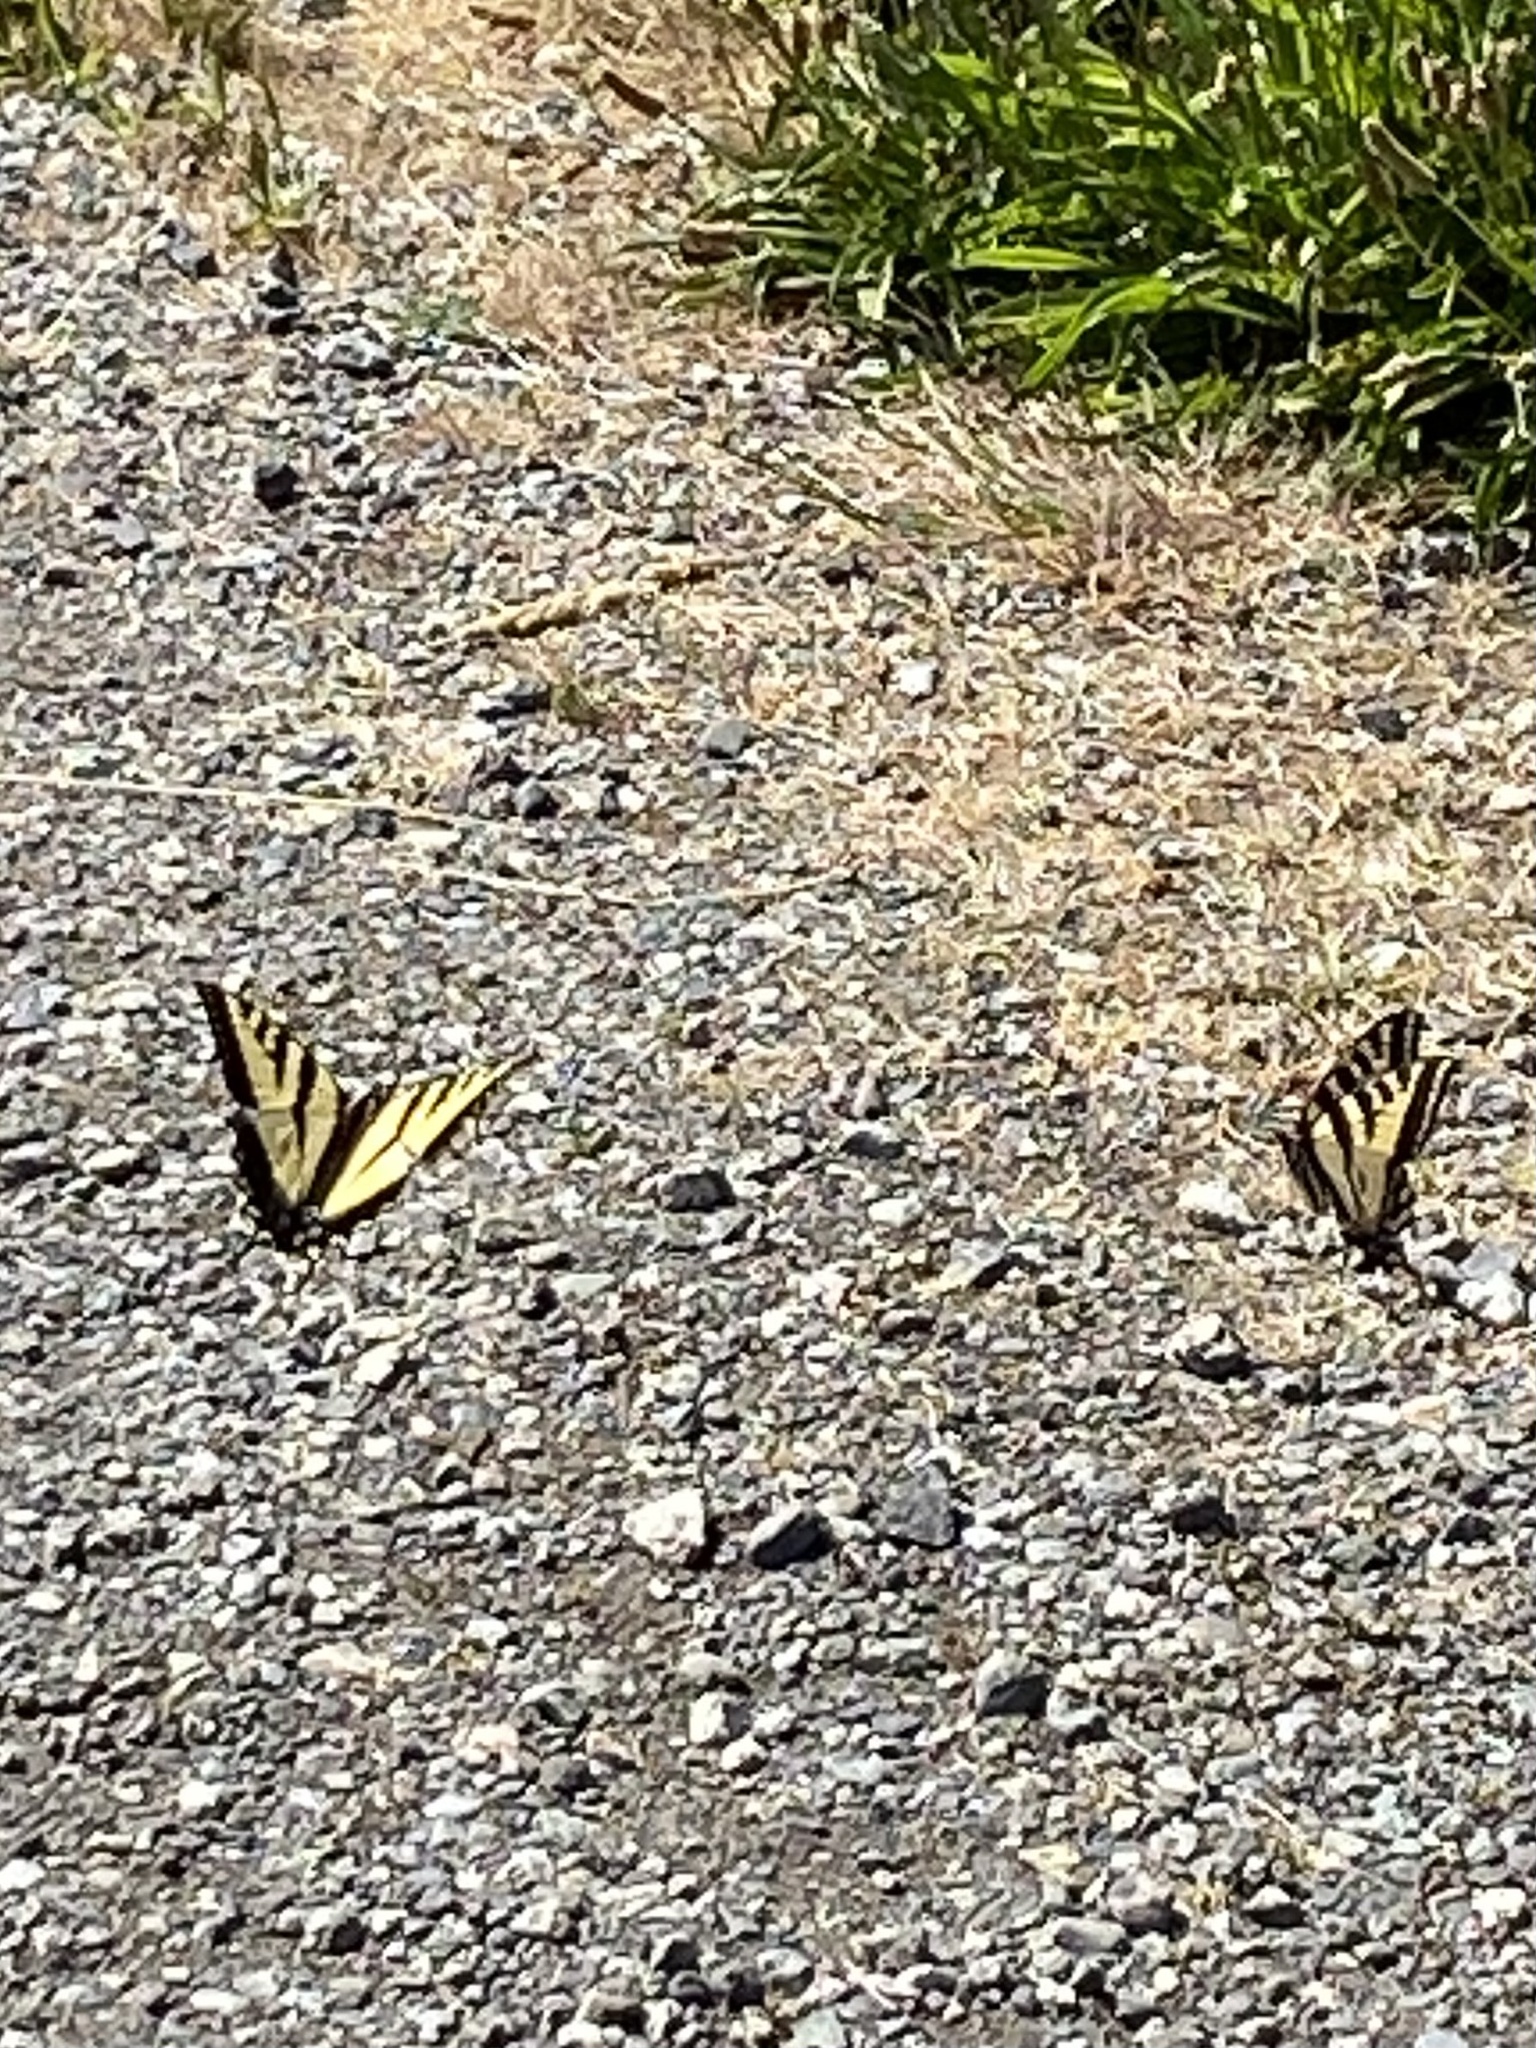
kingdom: Animalia
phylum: Arthropoda
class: Insecta
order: Lepidoptera
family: Papilionidae
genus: Papilio
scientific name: Papilio rutulus
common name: Western tiger swallowtail
